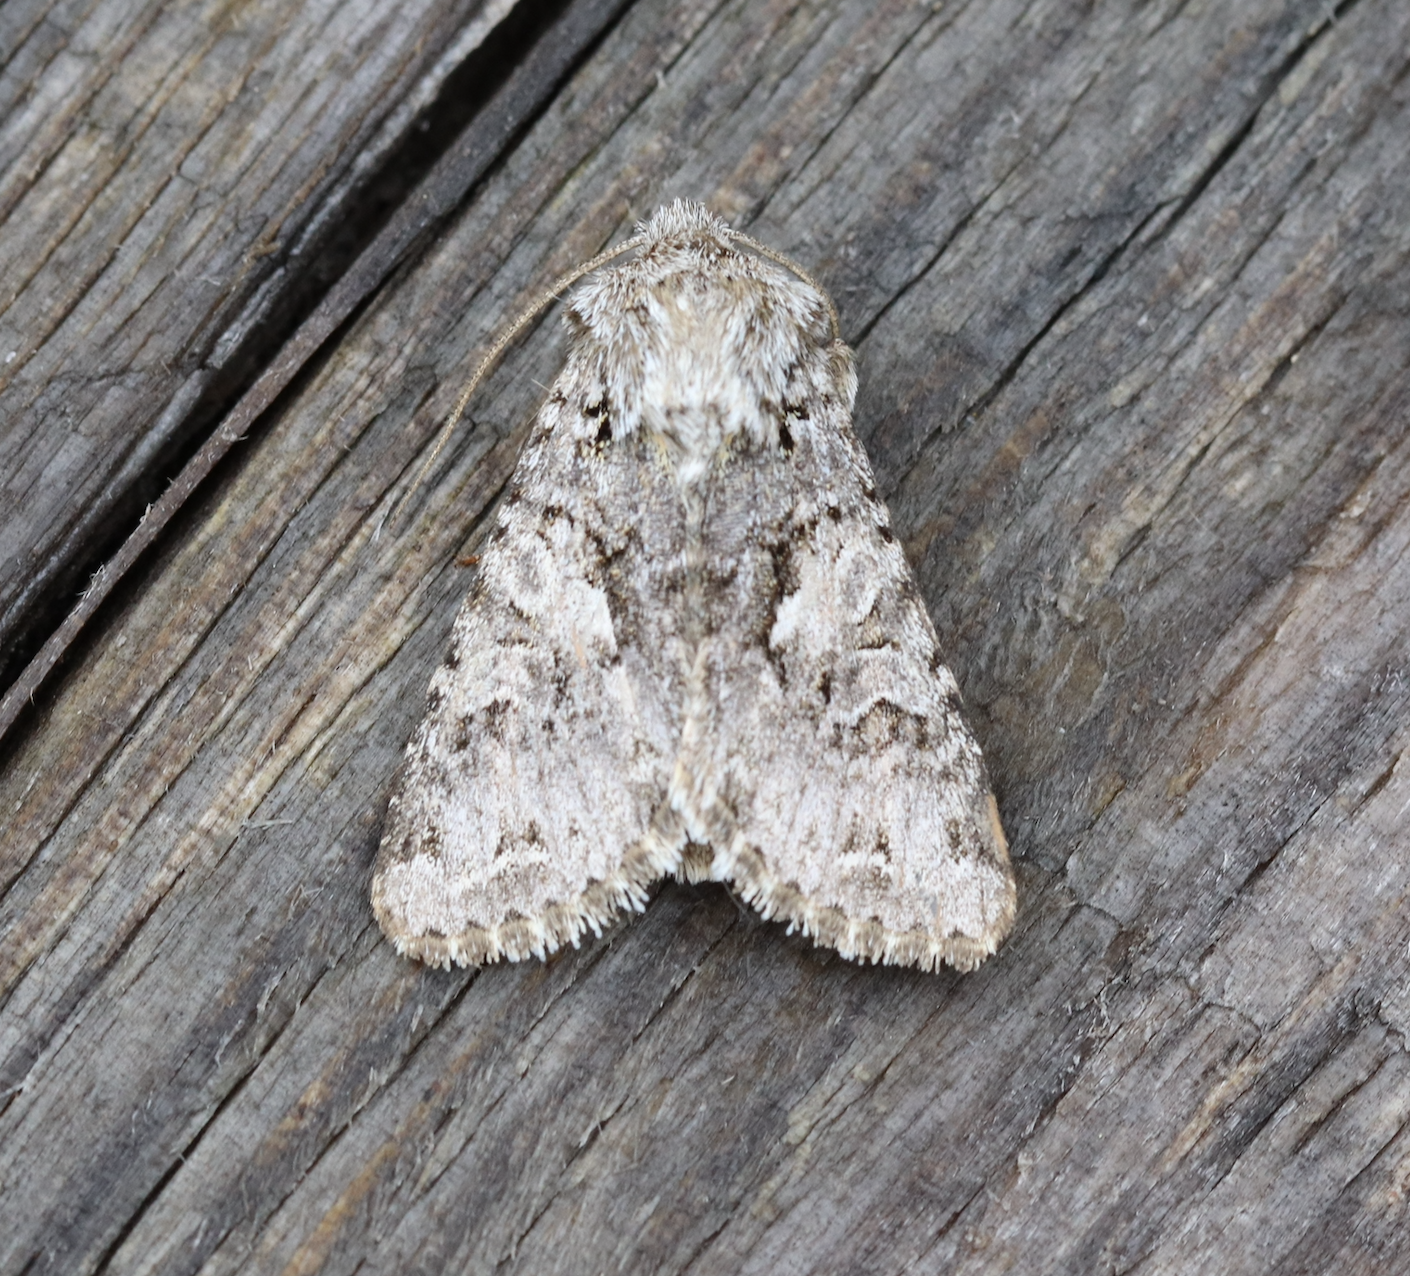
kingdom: Animalia
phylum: Arthropoda
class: Insecta
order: Lepidoptera
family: Noctuidae
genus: Hada
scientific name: Hada plebeja
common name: Shears
